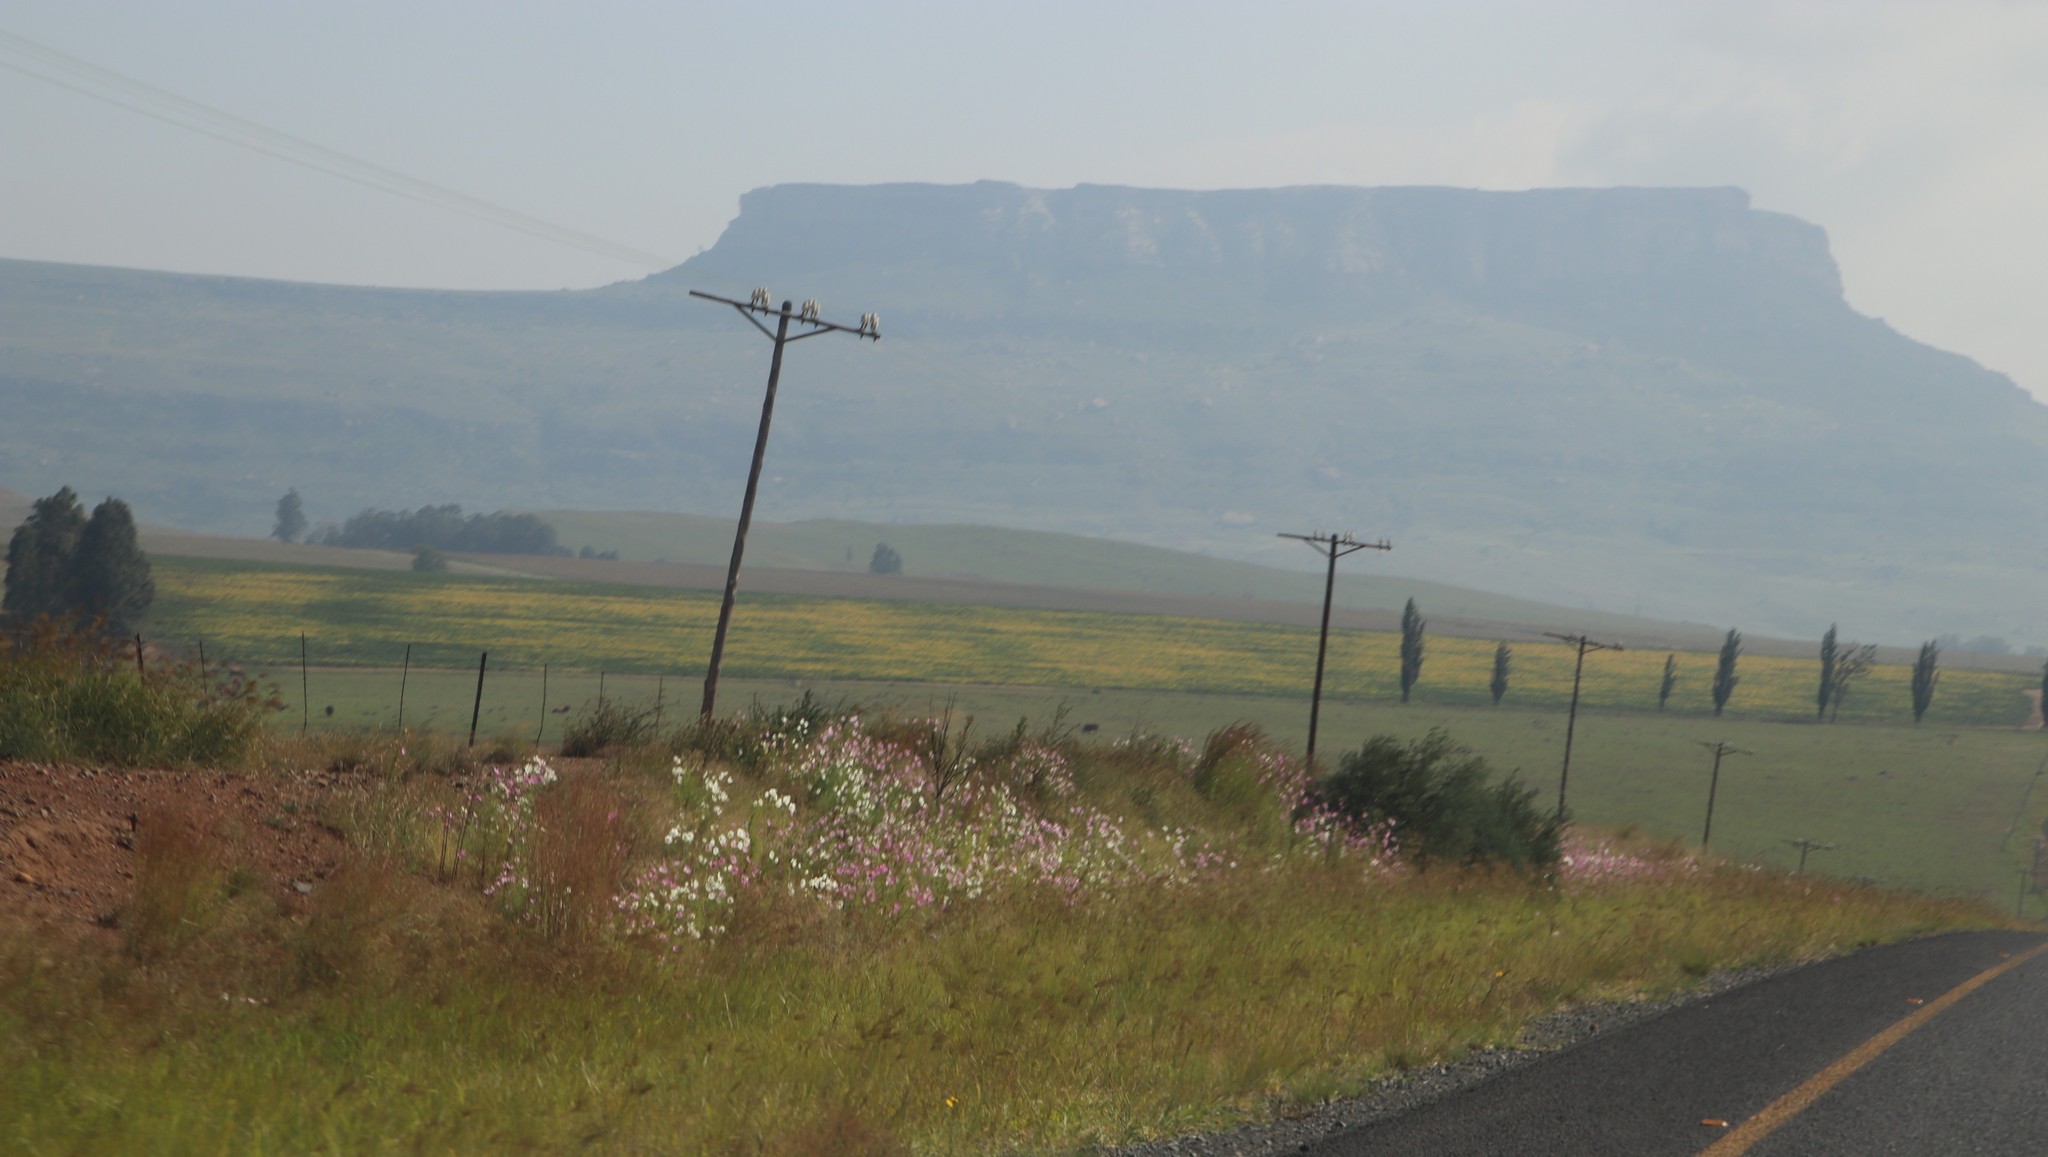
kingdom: Plantae
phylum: Tracheophyta
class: Magnoliopsida
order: Asterales
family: Asteraceae
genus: Cosmos
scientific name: Cosmos bipinnatus
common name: Garden cosmos
